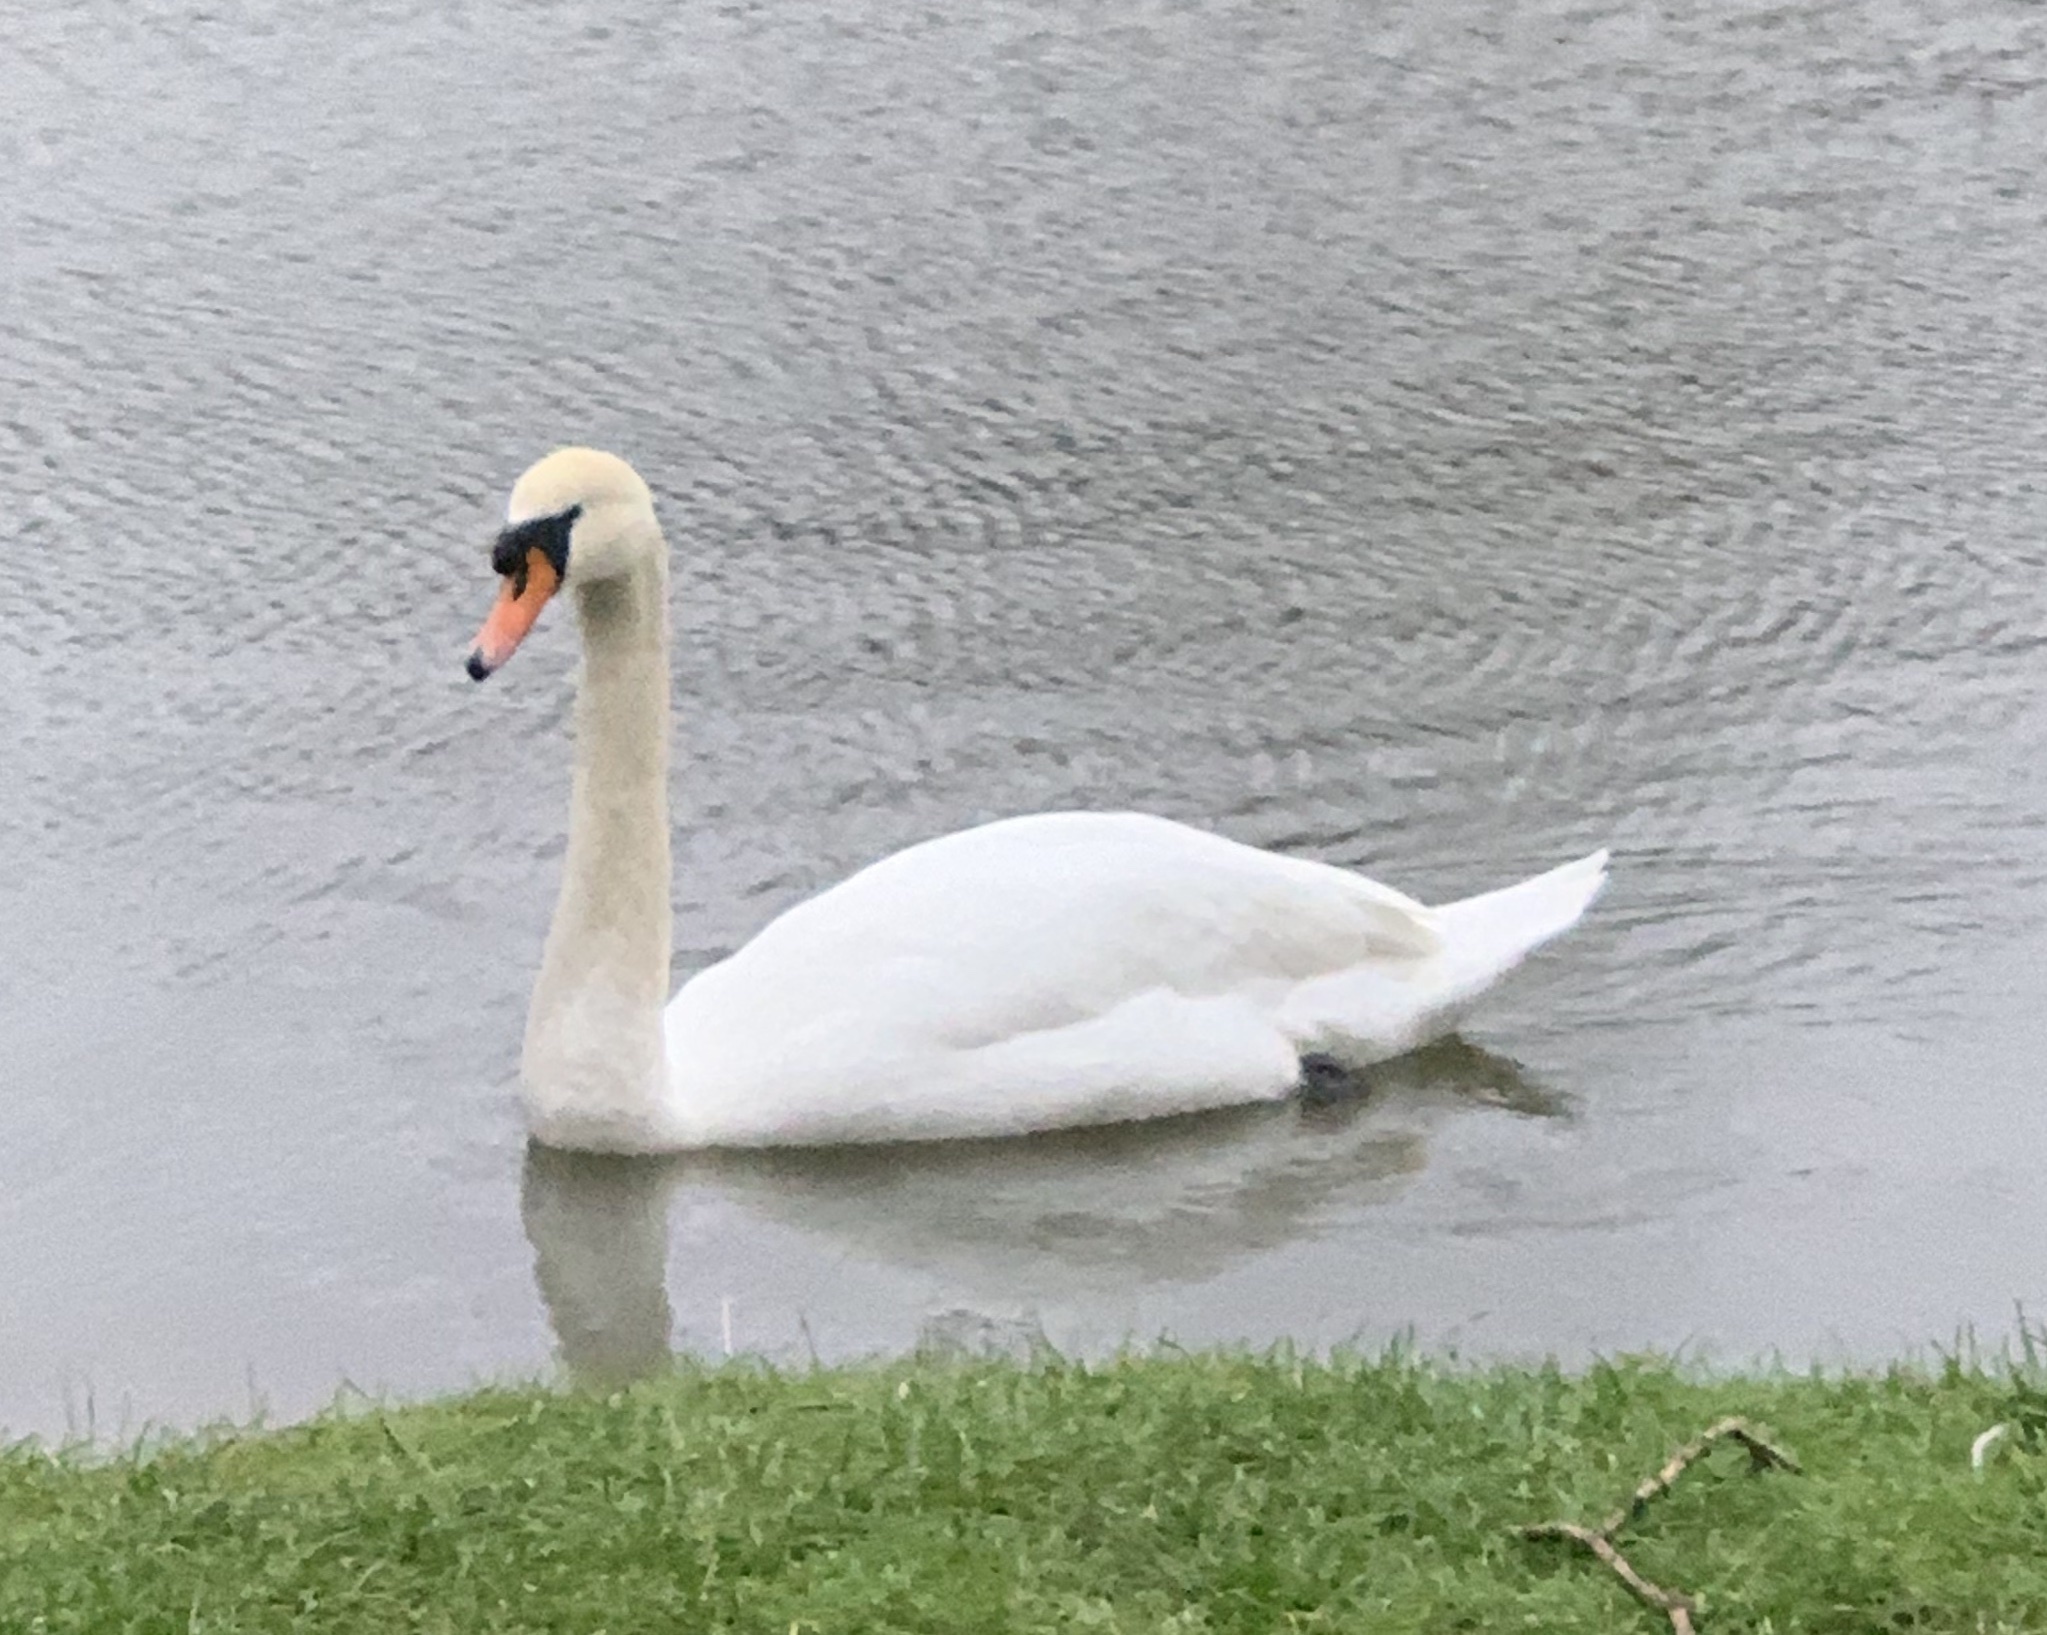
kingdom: Animalia
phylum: Chordata
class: Aves
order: Anseriformes
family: Anatidae
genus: Cygnus
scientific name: Cygnus olor
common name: Mute swan
